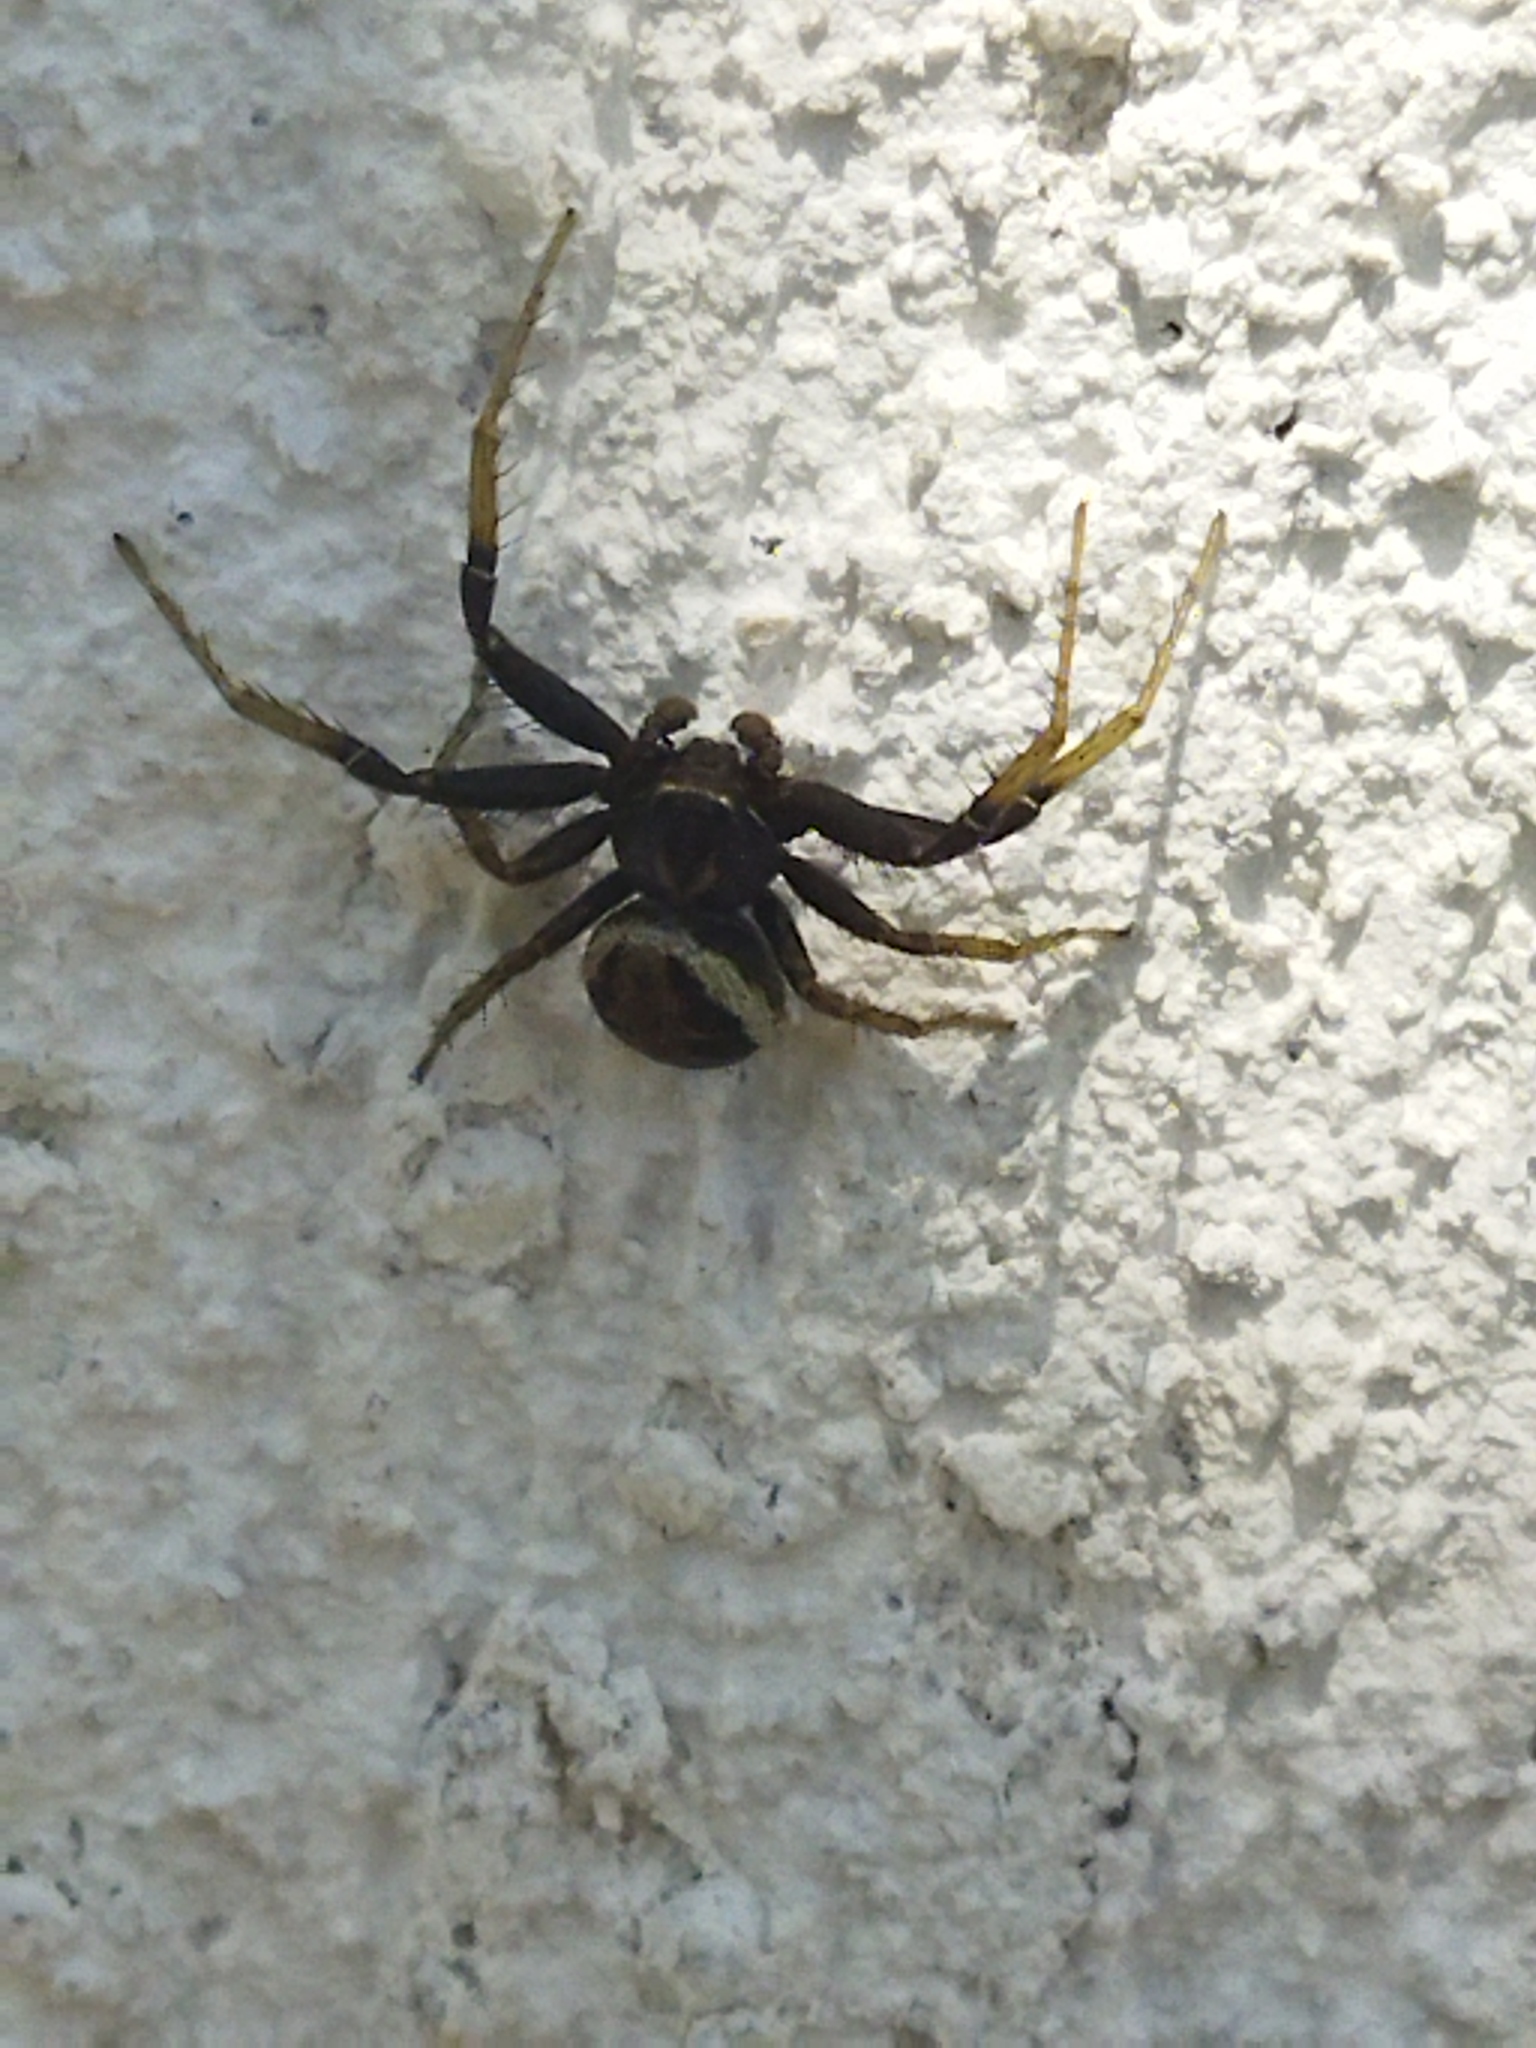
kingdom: Animalia
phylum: Arthropoda
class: Arachnida
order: Araneae
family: Thomisidae
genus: Xysticus
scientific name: Xysticus
